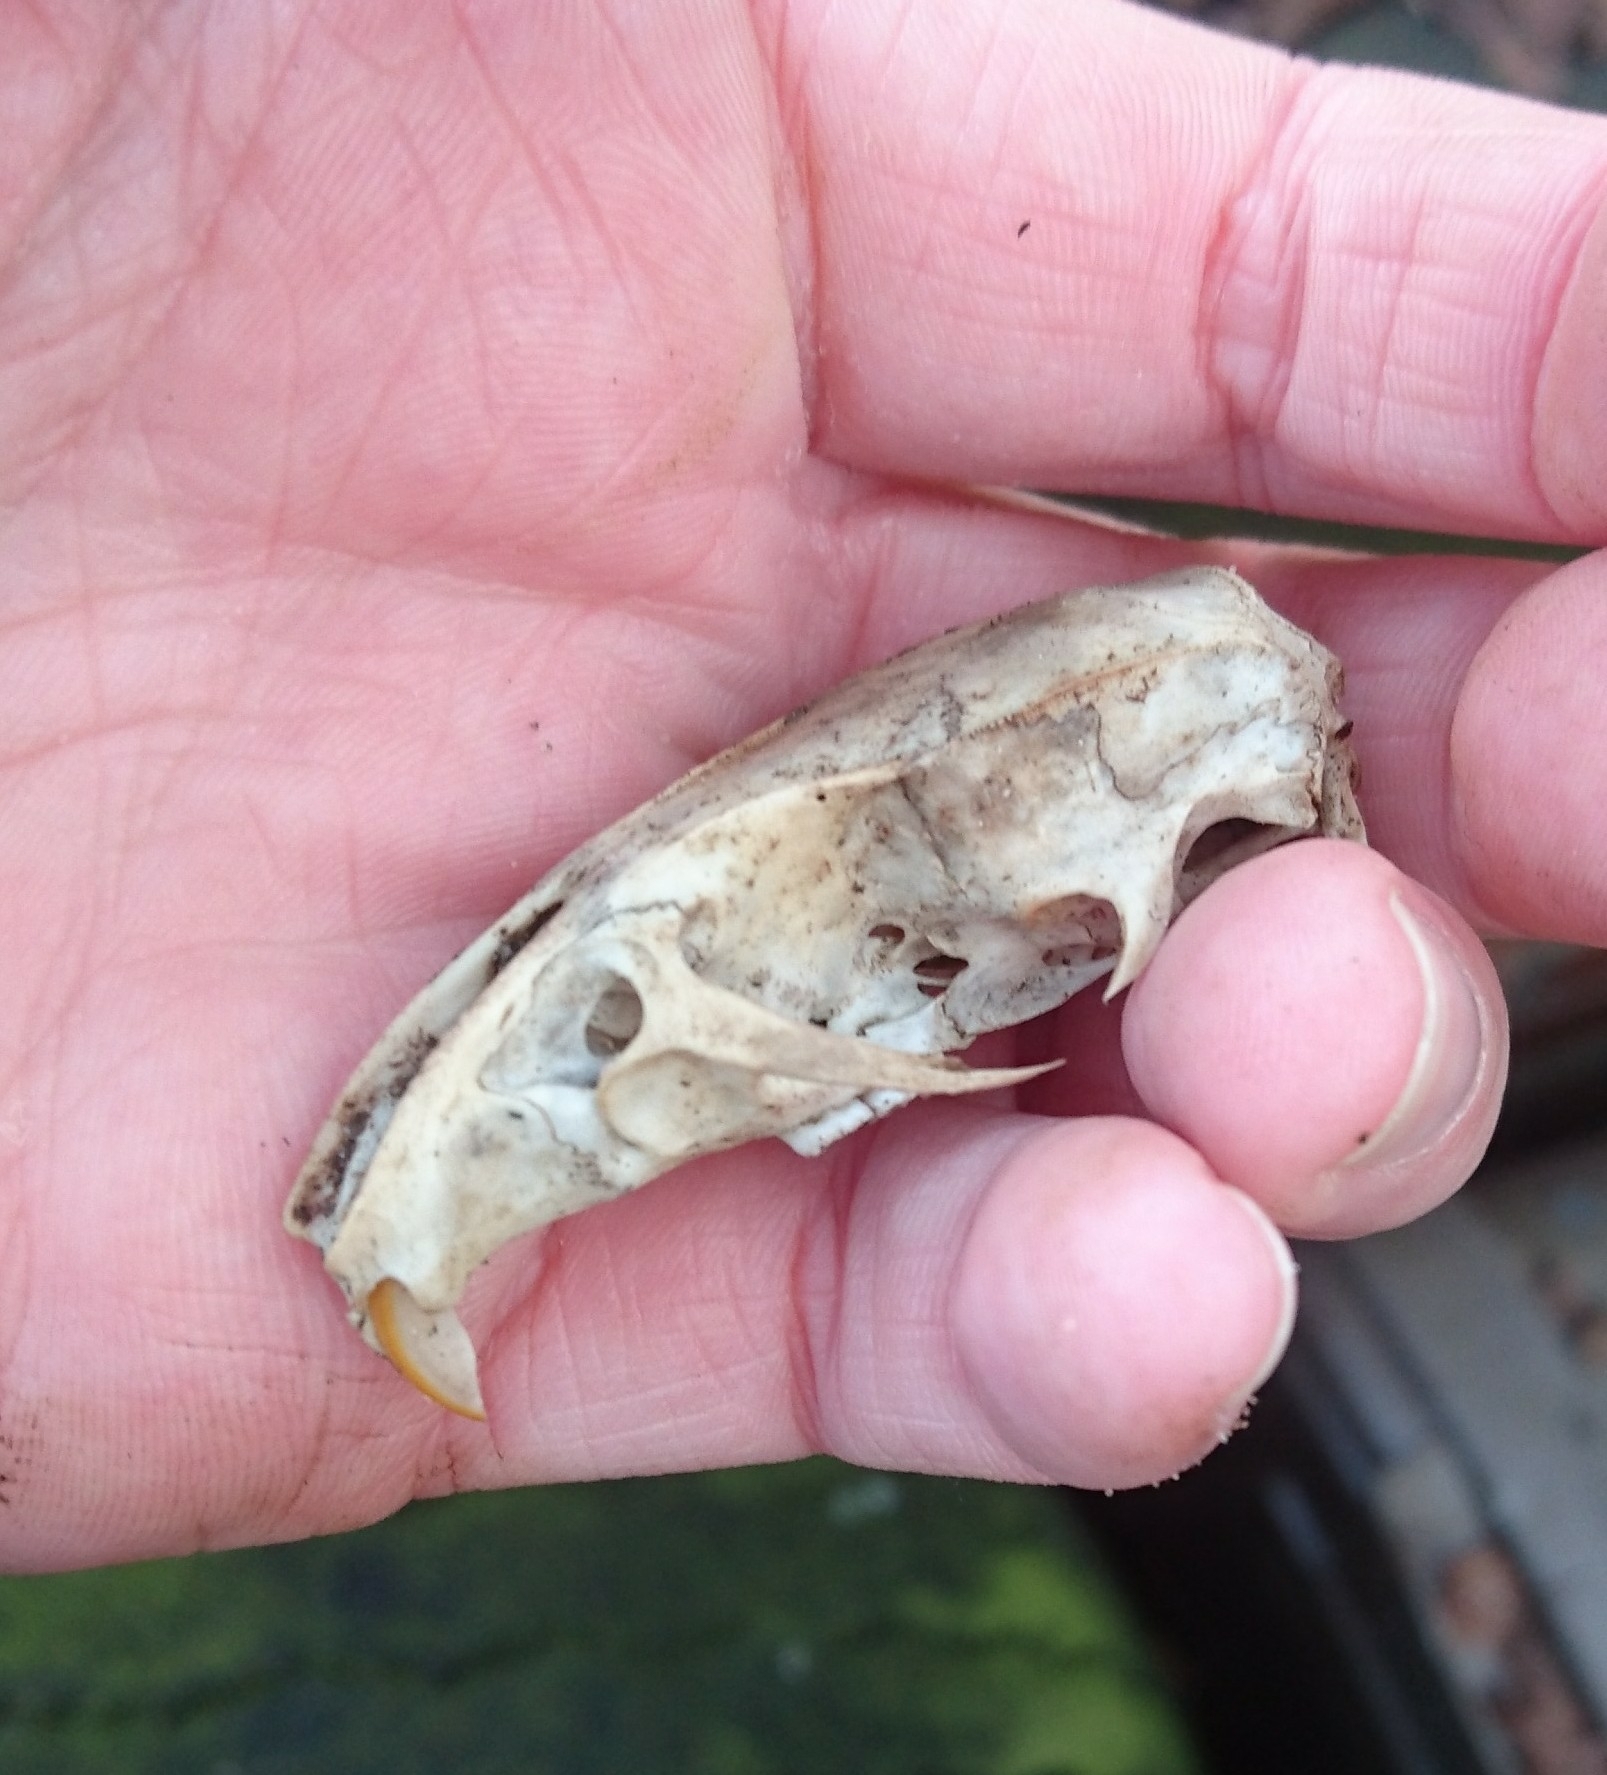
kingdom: Animalia
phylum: Chordata
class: Mammalia
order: Rodentia
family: Muridae
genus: Rattus
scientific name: Rattus norvegicus
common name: Brown rat
